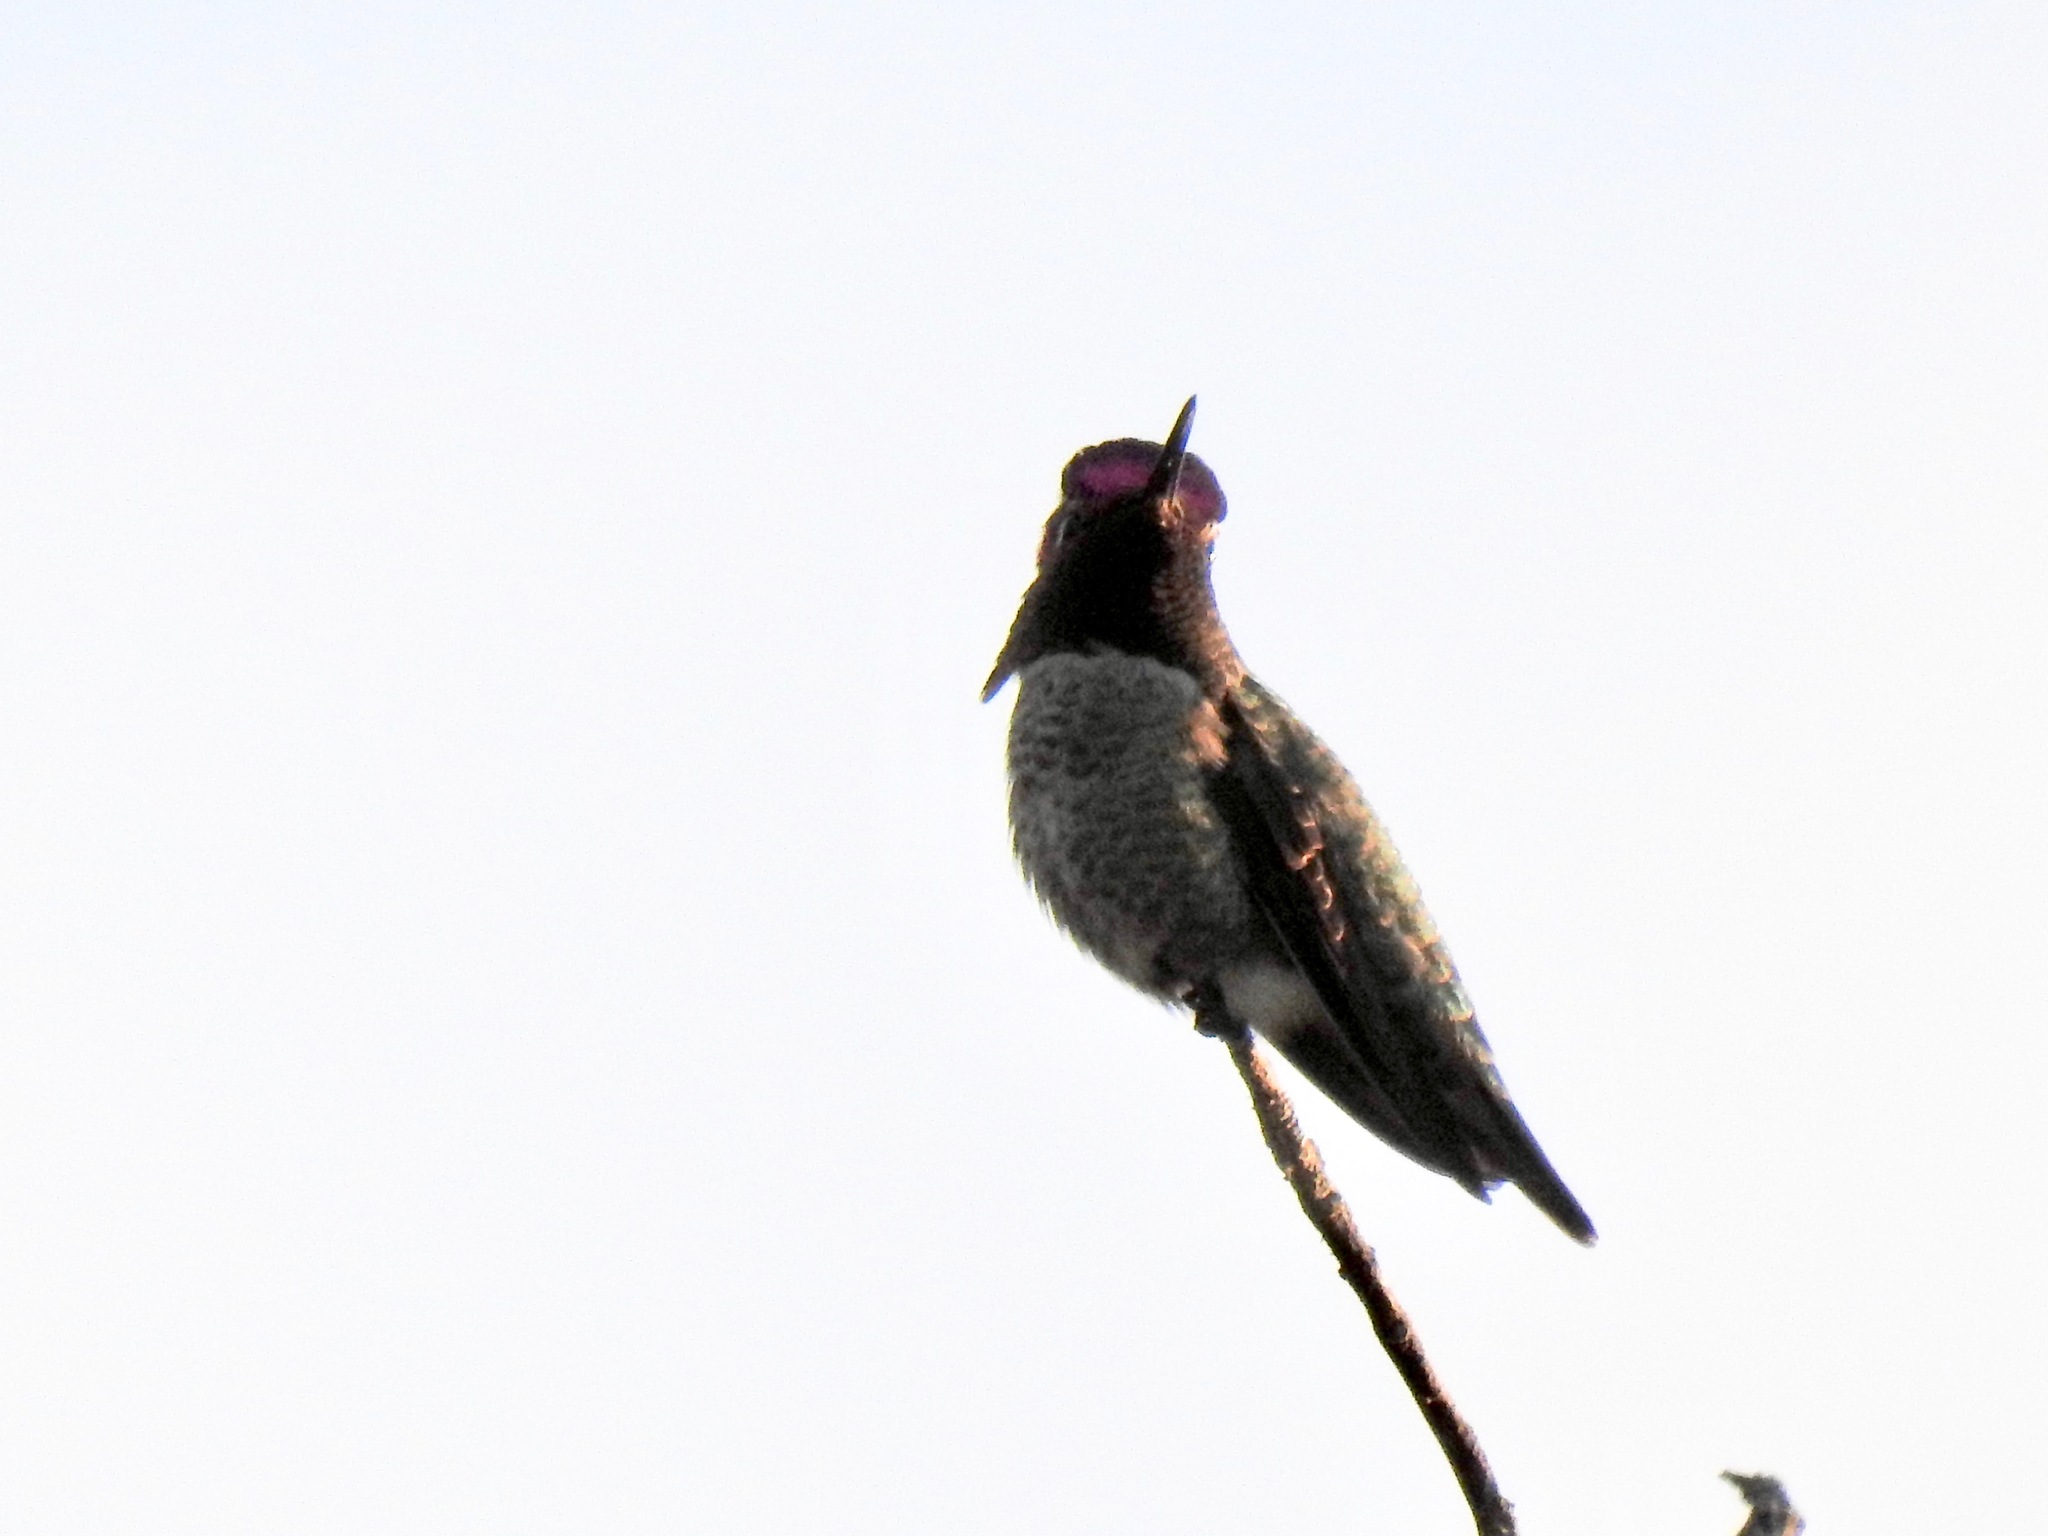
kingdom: Animalia
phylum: Chordata
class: Aves
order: Apodiformes
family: Trochilidae
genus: Calypte
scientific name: Calypte anna
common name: Anna's hummingbird
